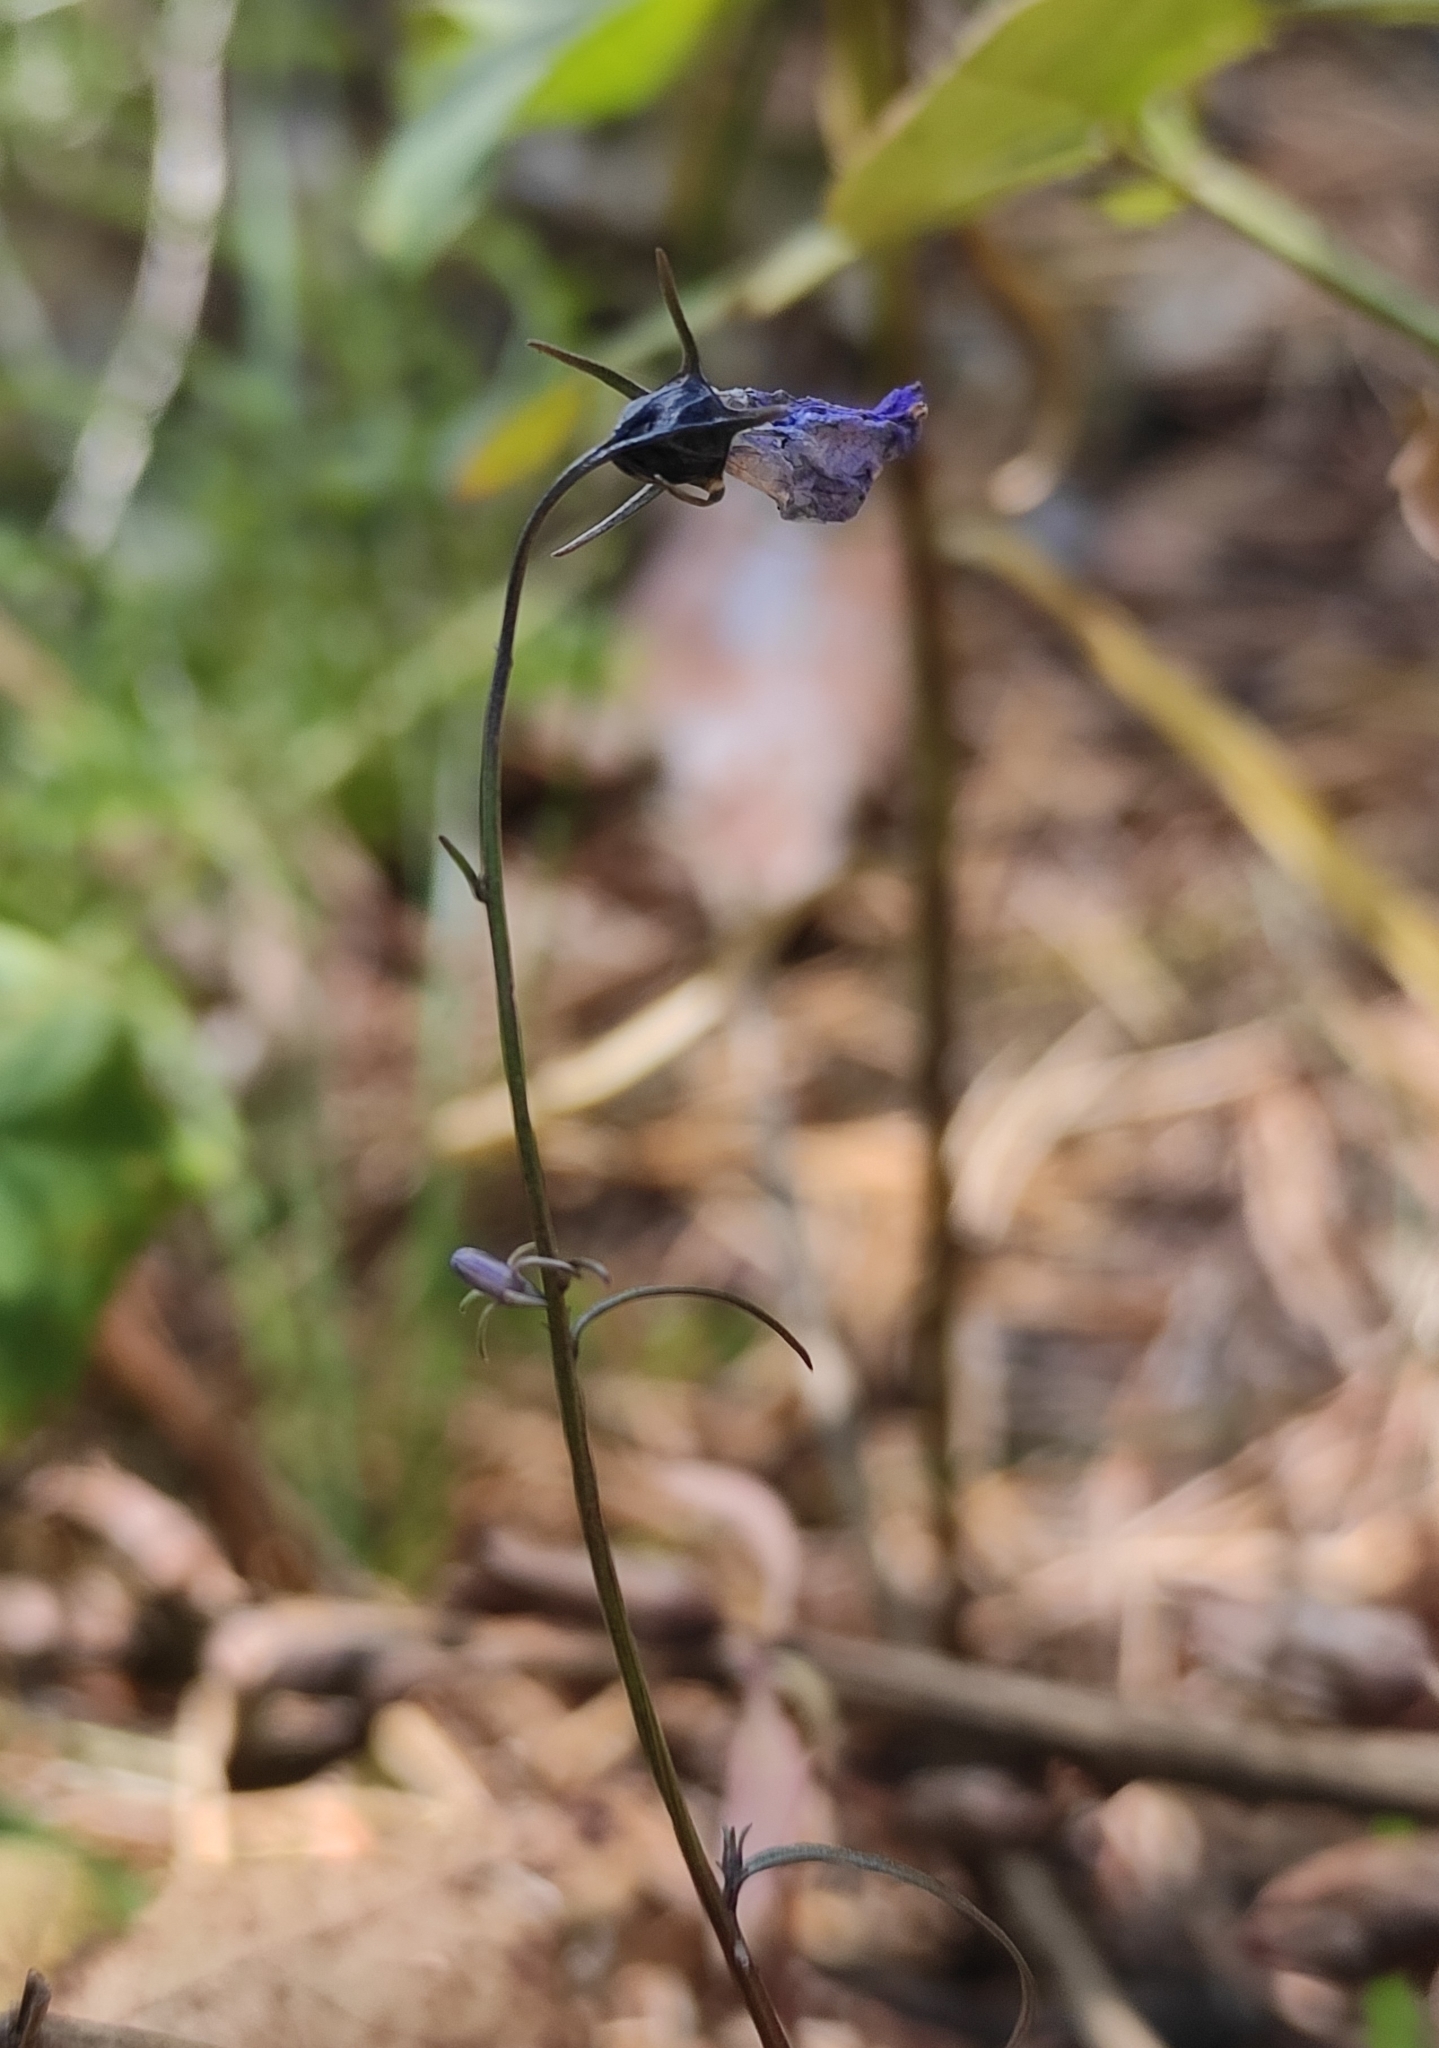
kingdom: Plantae
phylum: Tracheophyta
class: Magnoliopsida
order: Asterales
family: Campanulaceae
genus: Campanula
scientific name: Campanula rotundifolia
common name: Harebell
